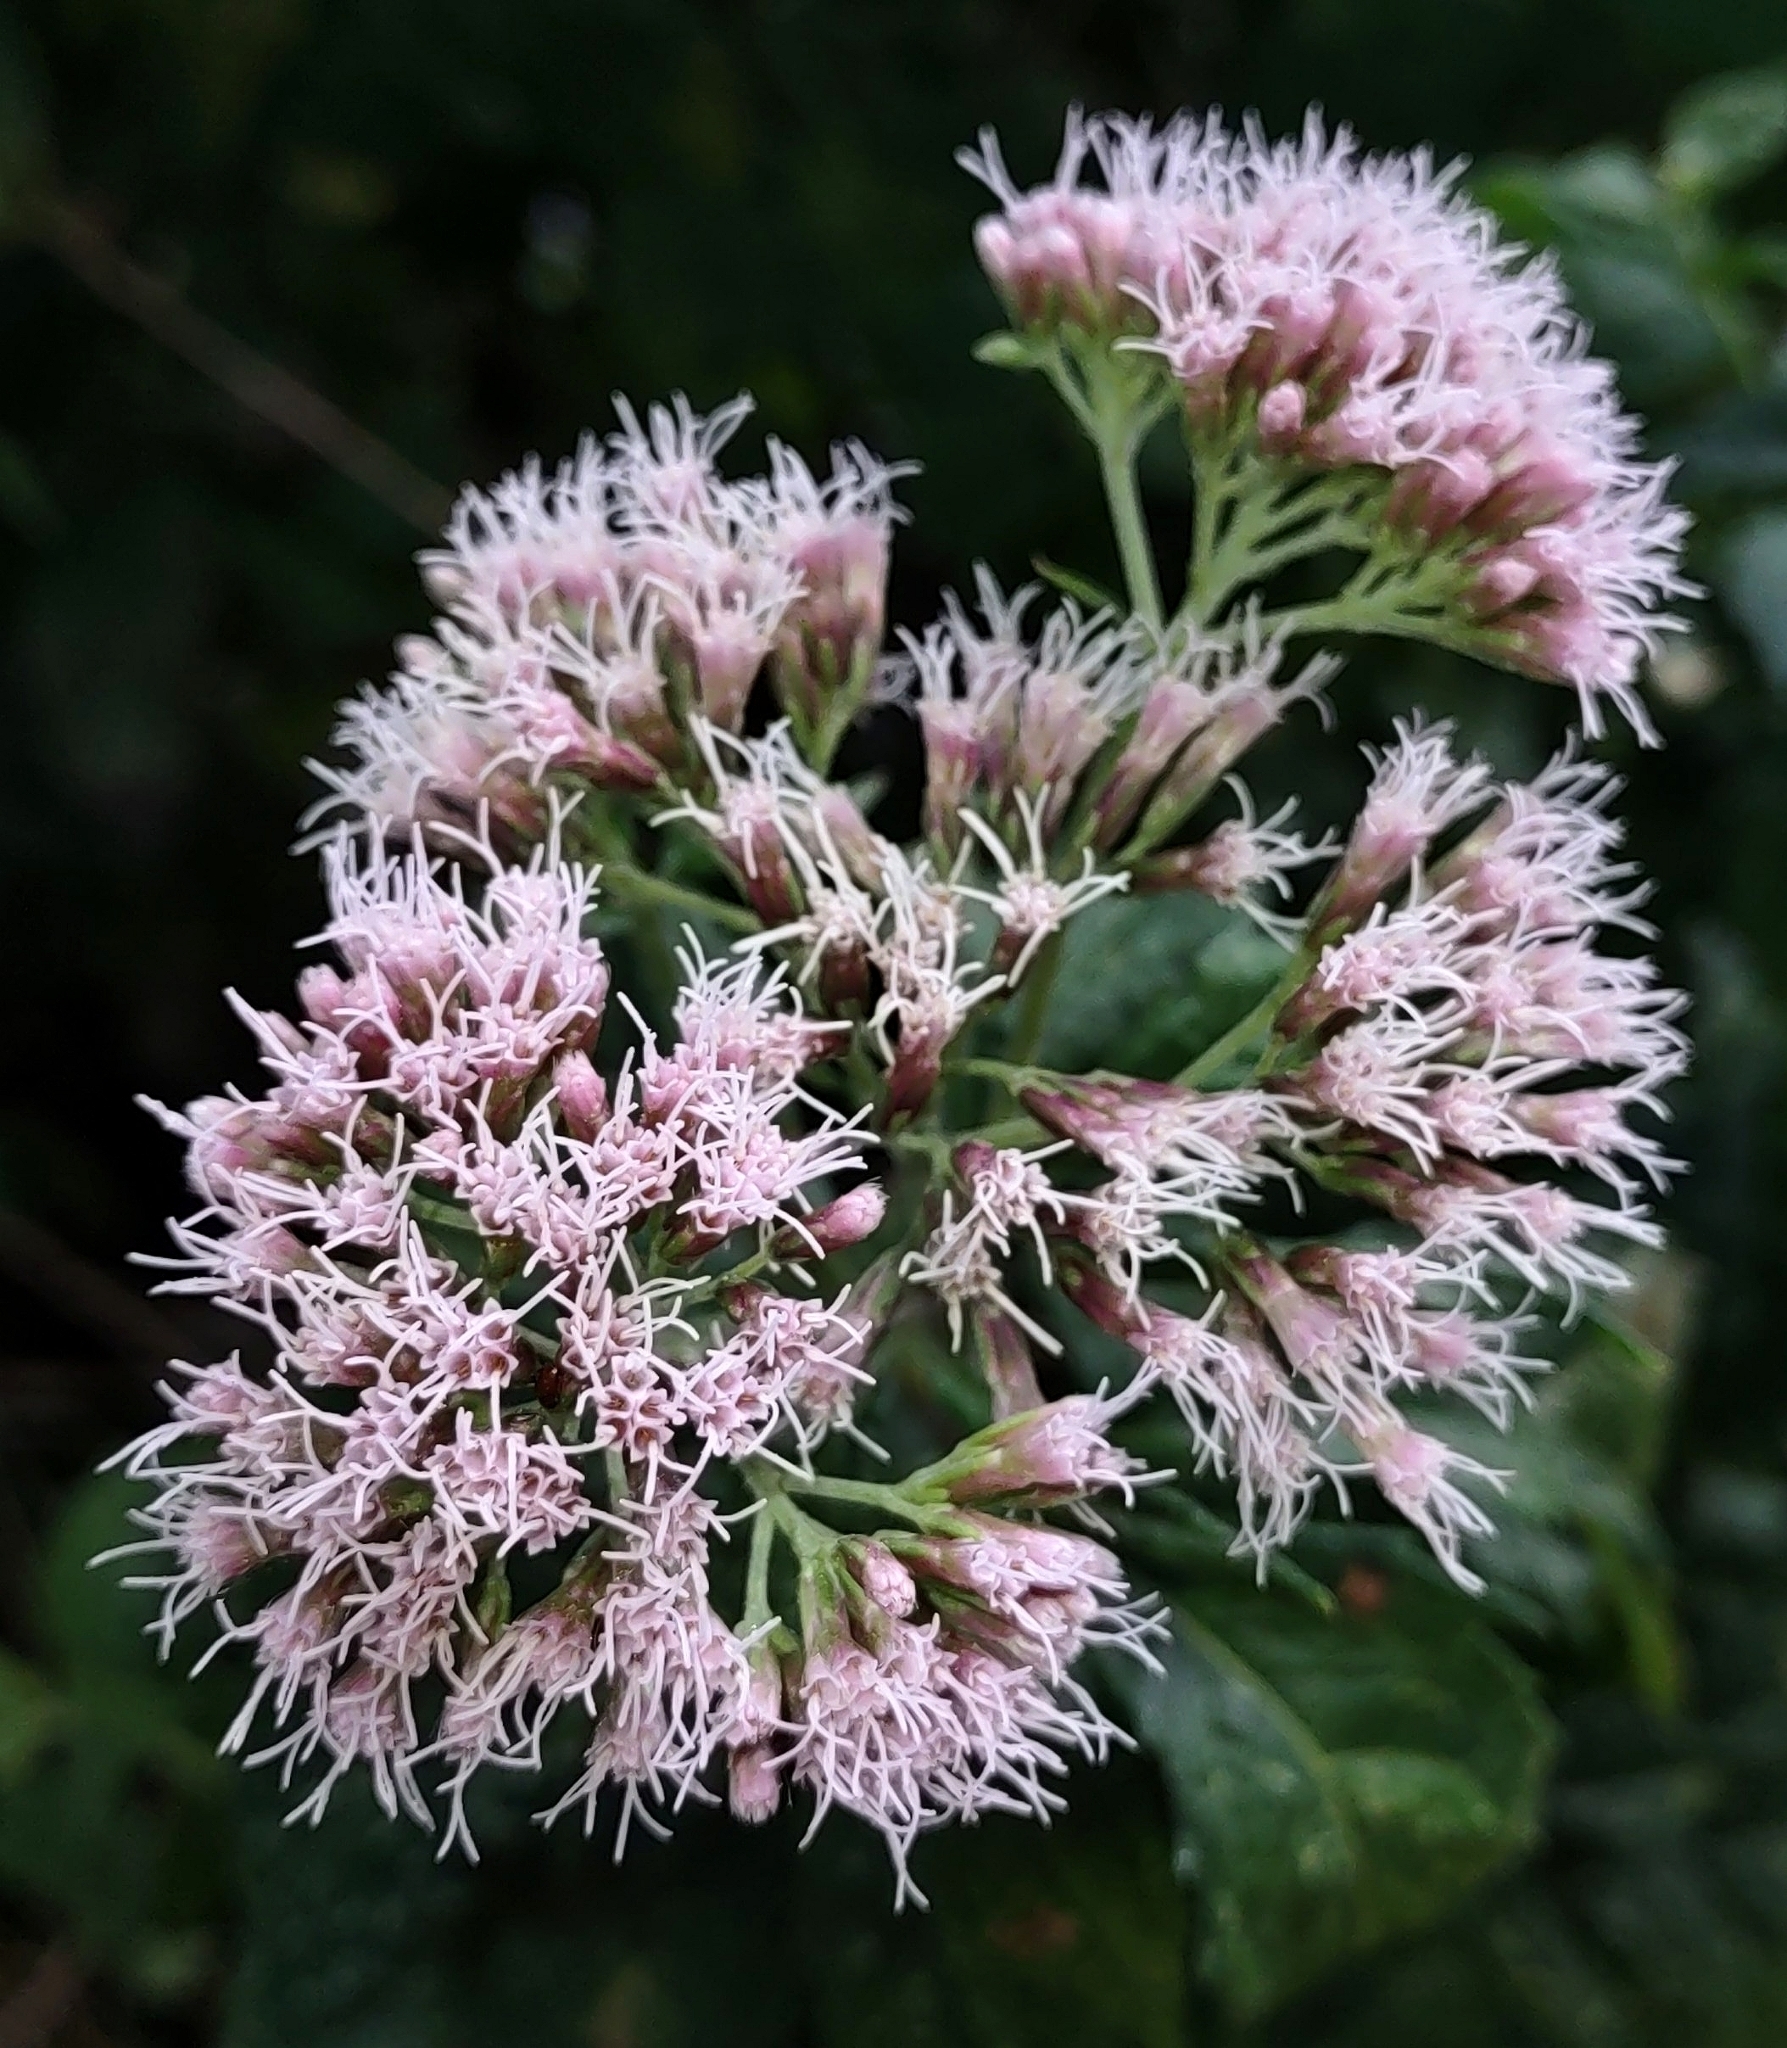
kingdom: Plantae
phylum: Tracheophyta
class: Magnoliopsida
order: Asterales
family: Asteraceae
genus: Eupatorium
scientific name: Eupatorium cannabinum
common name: Hemp-agrimony
